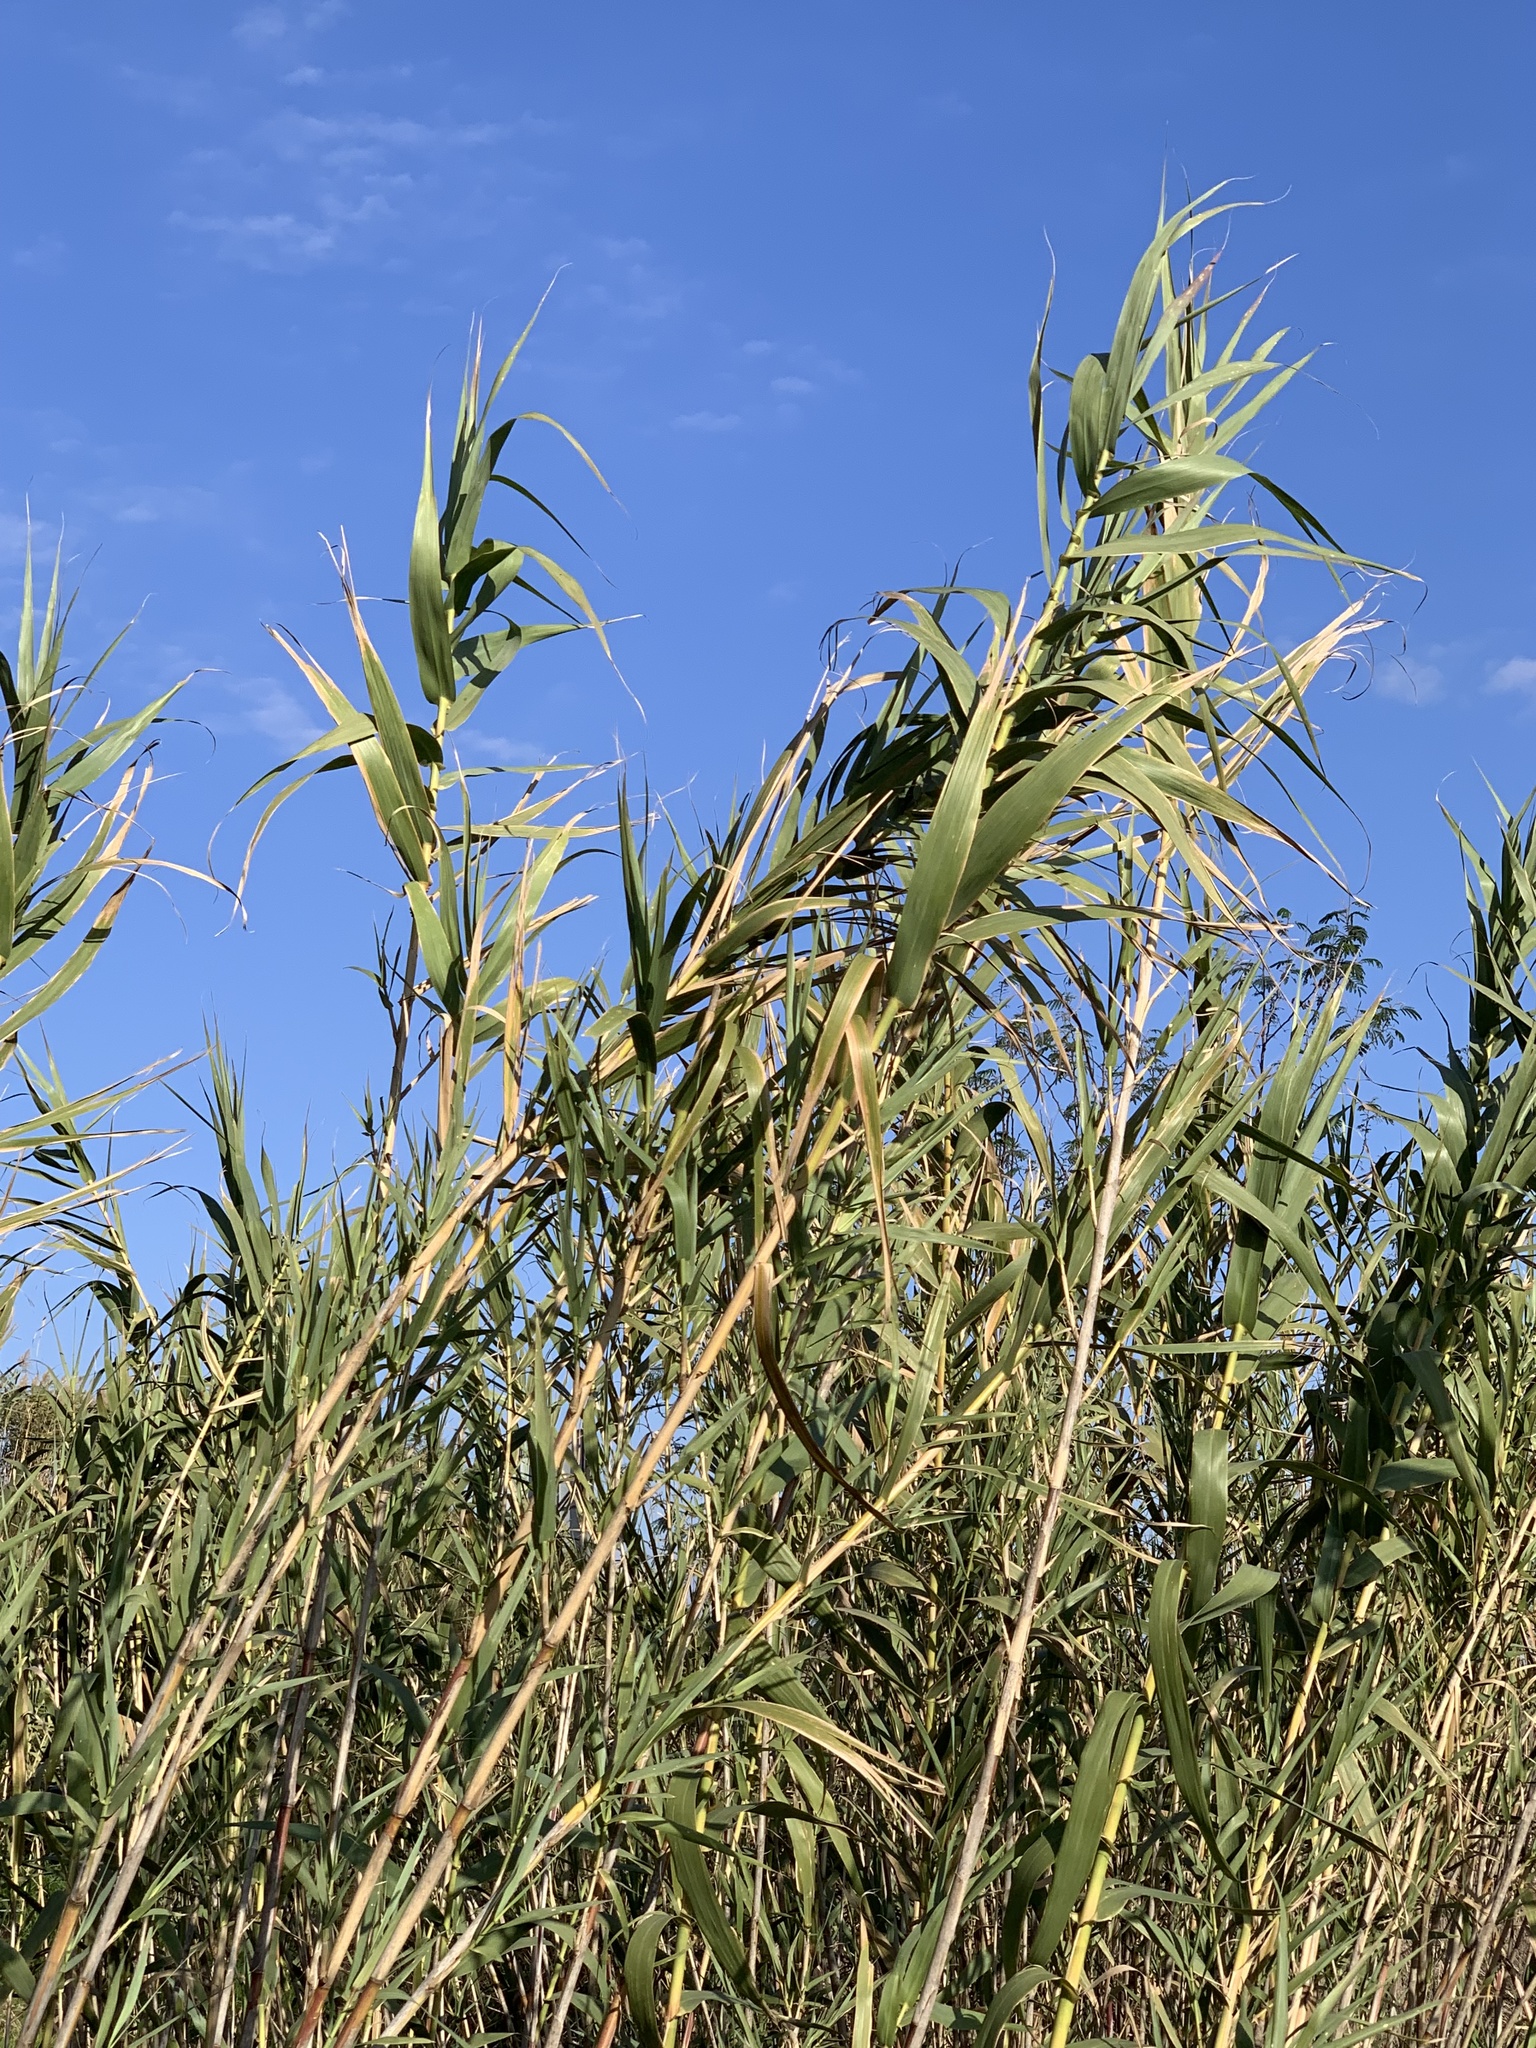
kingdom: Plantae
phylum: Tracheophyta
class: Liliopsida
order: Poales
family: Poaceae
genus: Arundo
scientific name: Arundo donax
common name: Giant reed
